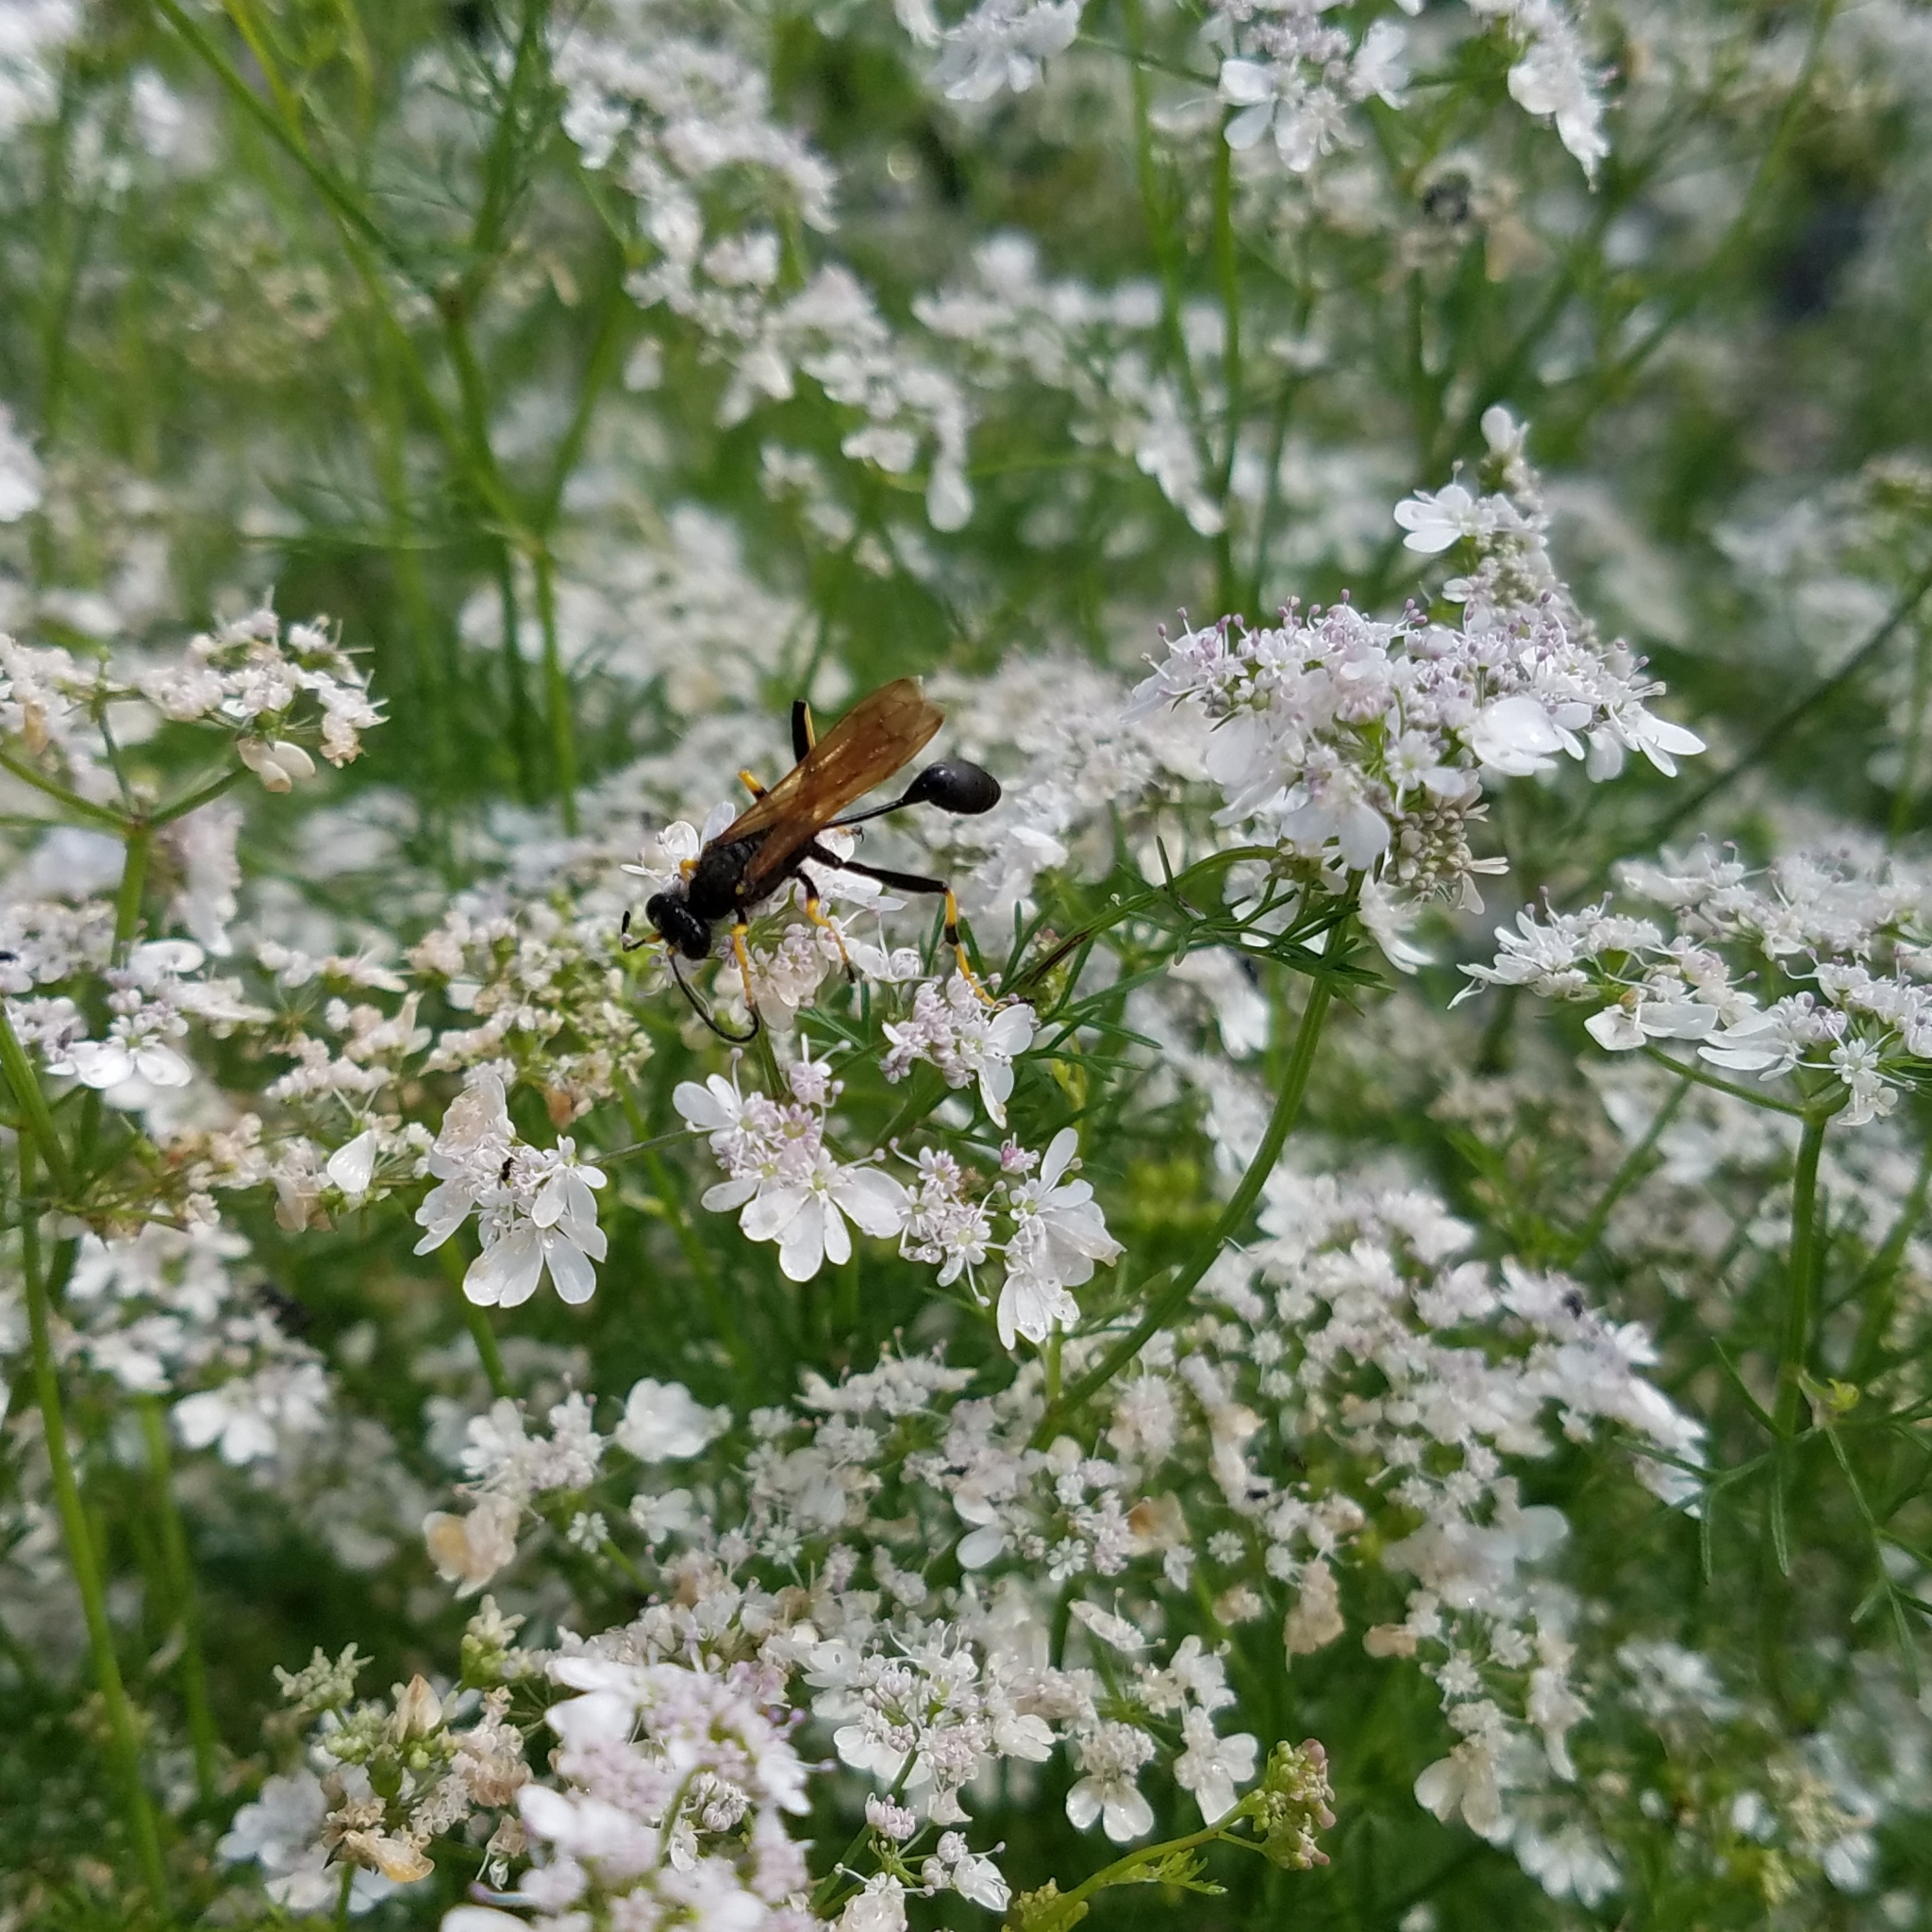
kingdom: Animalia
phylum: Arthropoda
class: Insecta
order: Hymenoptera
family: Sphecidae
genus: Sceliphron
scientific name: Sceliphron caementarium
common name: Mud dauber
